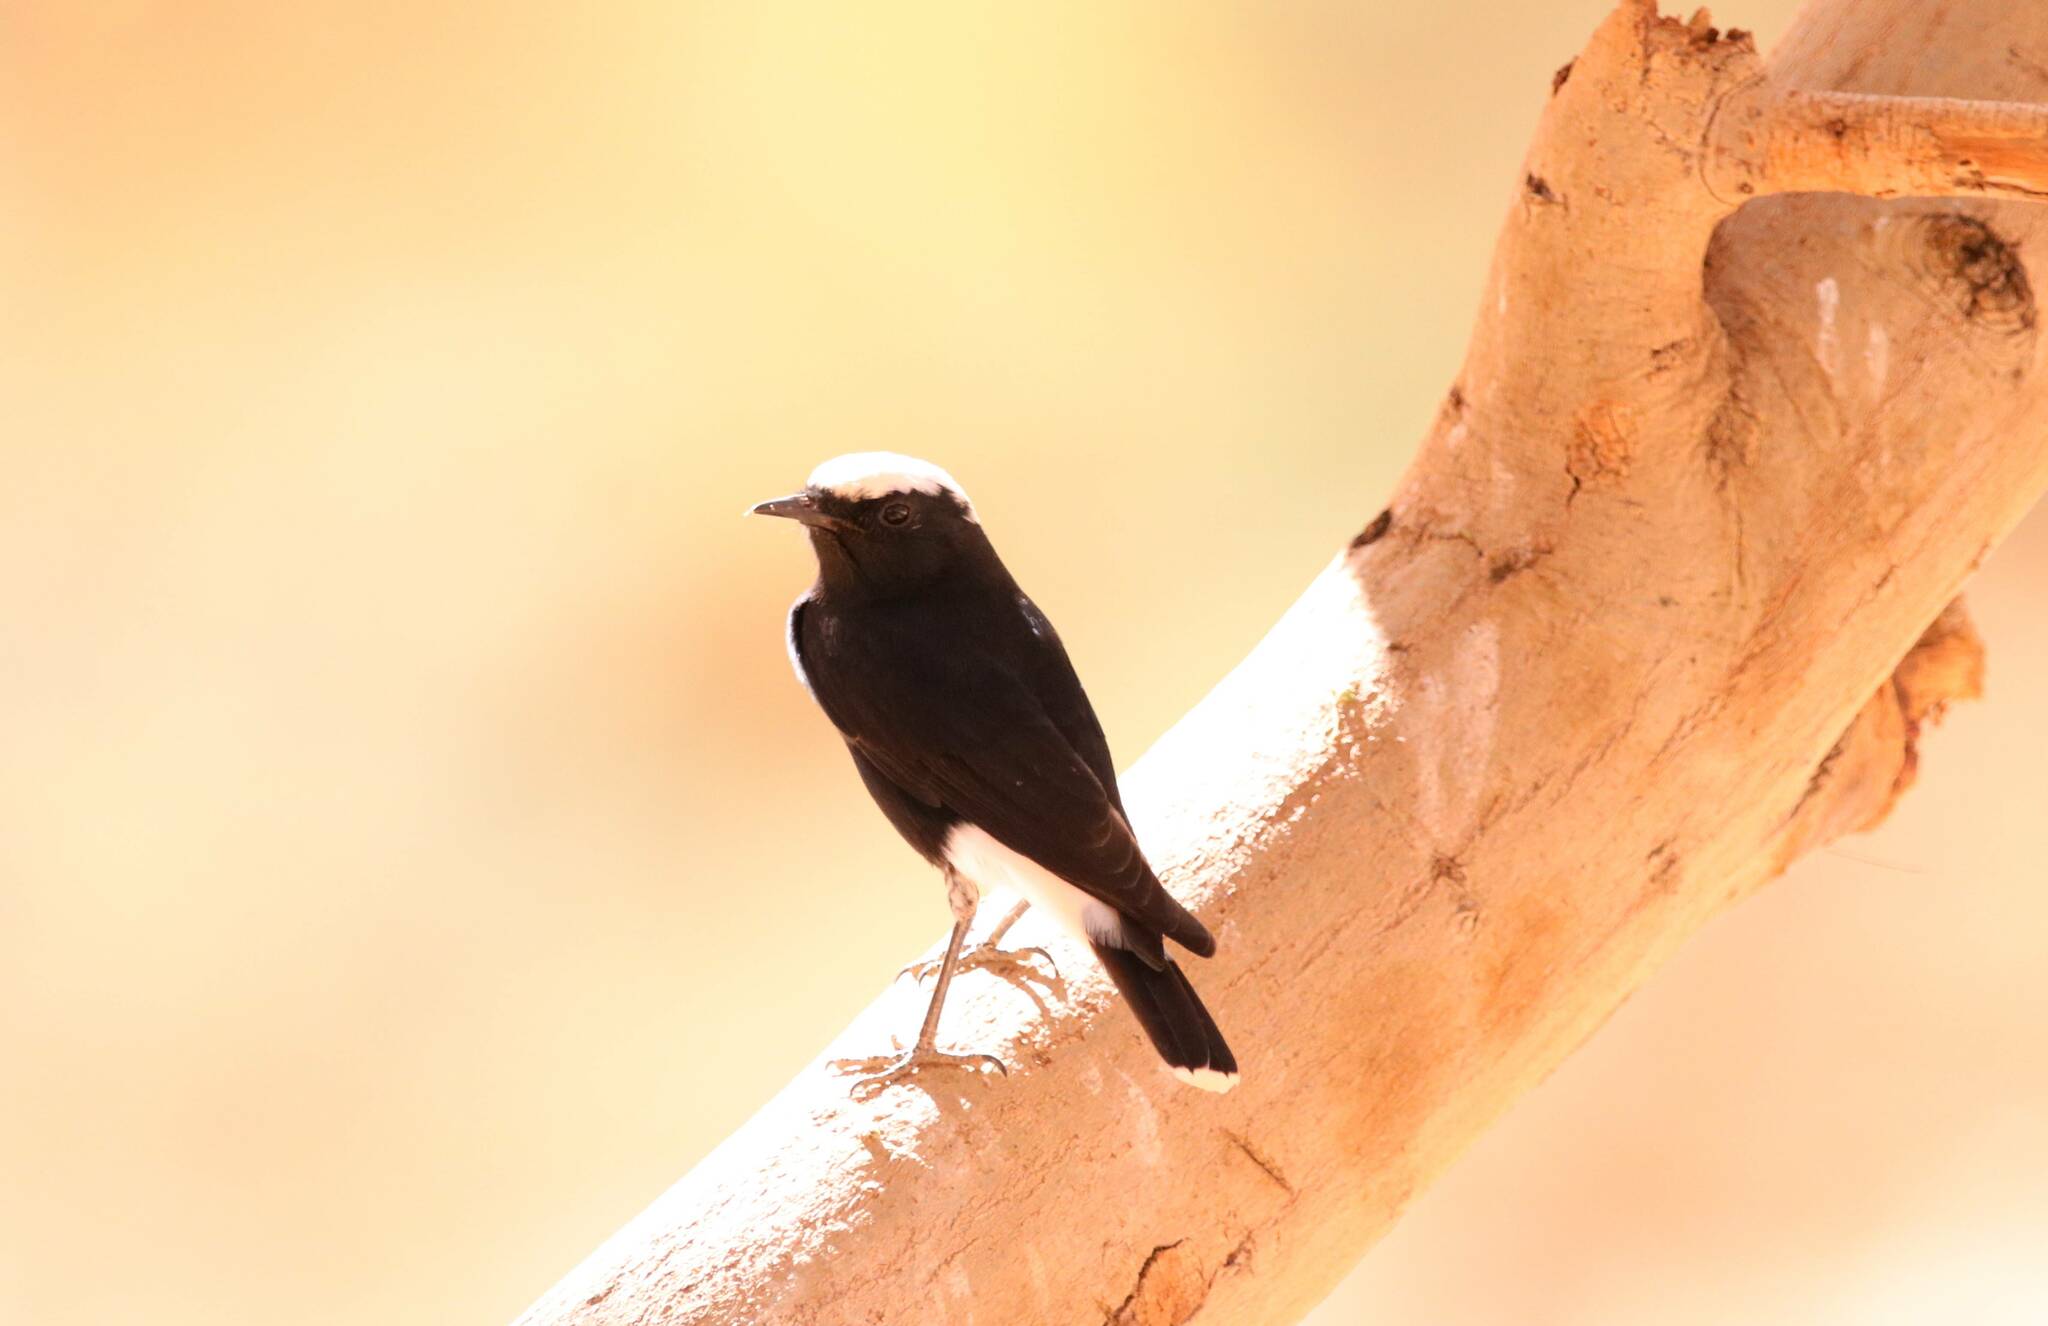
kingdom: Animalia
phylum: Chordata
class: Aves
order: Passeriformes
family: Muscicapidae
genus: Oenanthe
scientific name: Oenanthe leucopyga
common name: White-crowned wheatear
